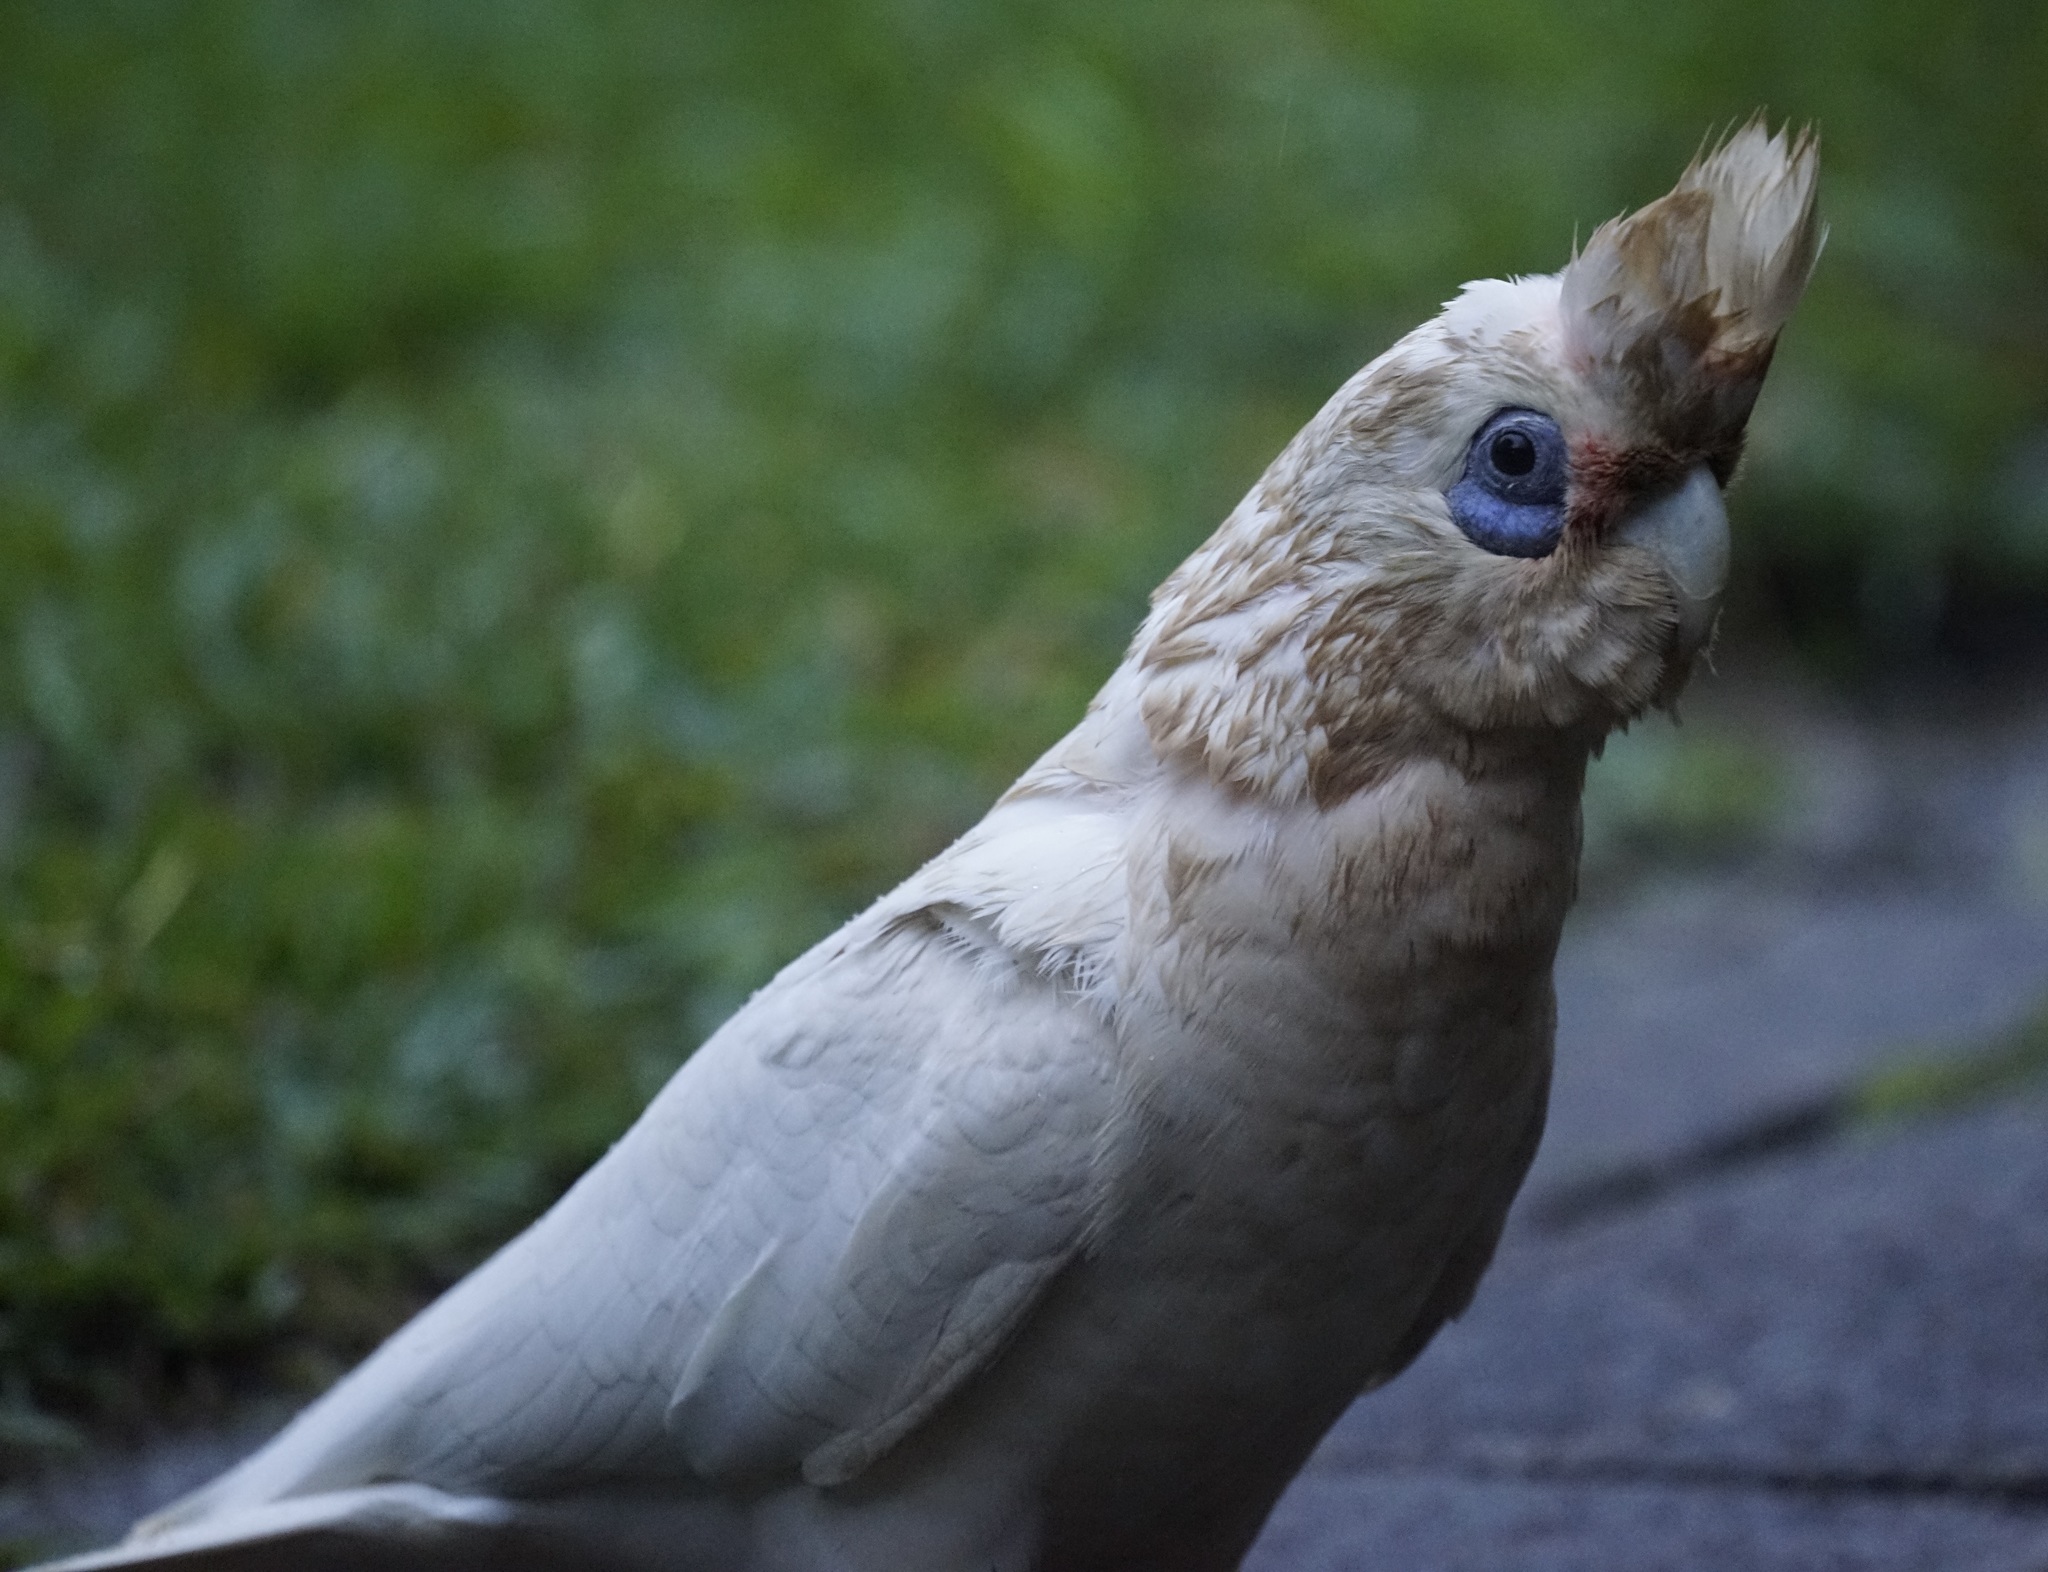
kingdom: Animalia
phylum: Chordata
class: Aves
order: Psittaciformes
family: Psittacidae
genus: Cacatua
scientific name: Cacatua sanguinea
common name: Little corella
